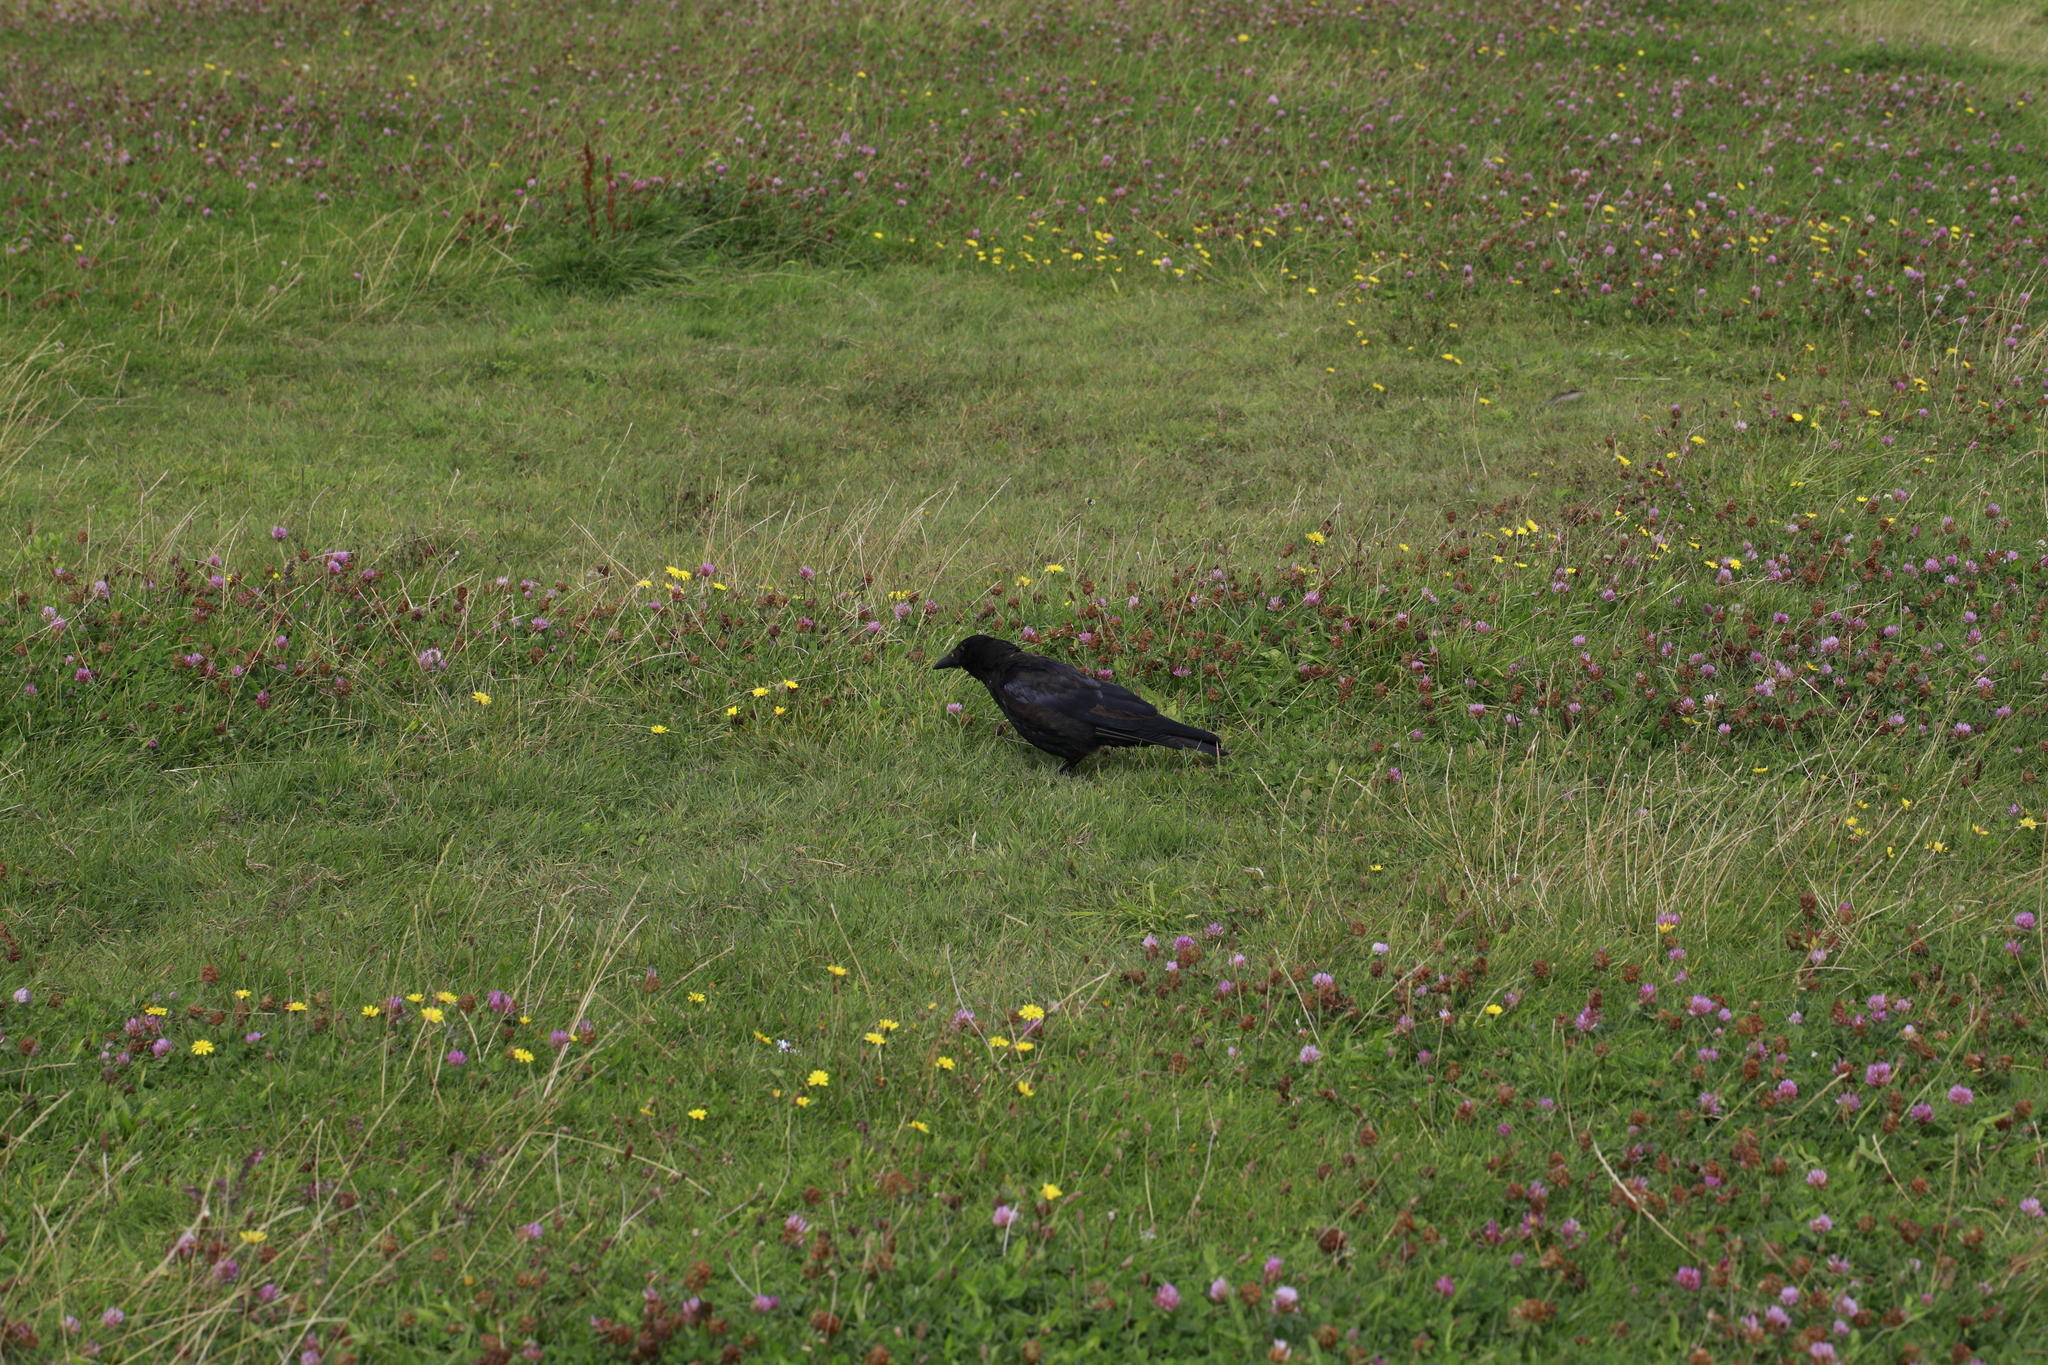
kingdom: Animalia
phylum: Chordata
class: Aves
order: Passeriformes
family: Corvidae
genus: Corvus
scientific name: Corvus corone
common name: Carrion crow
